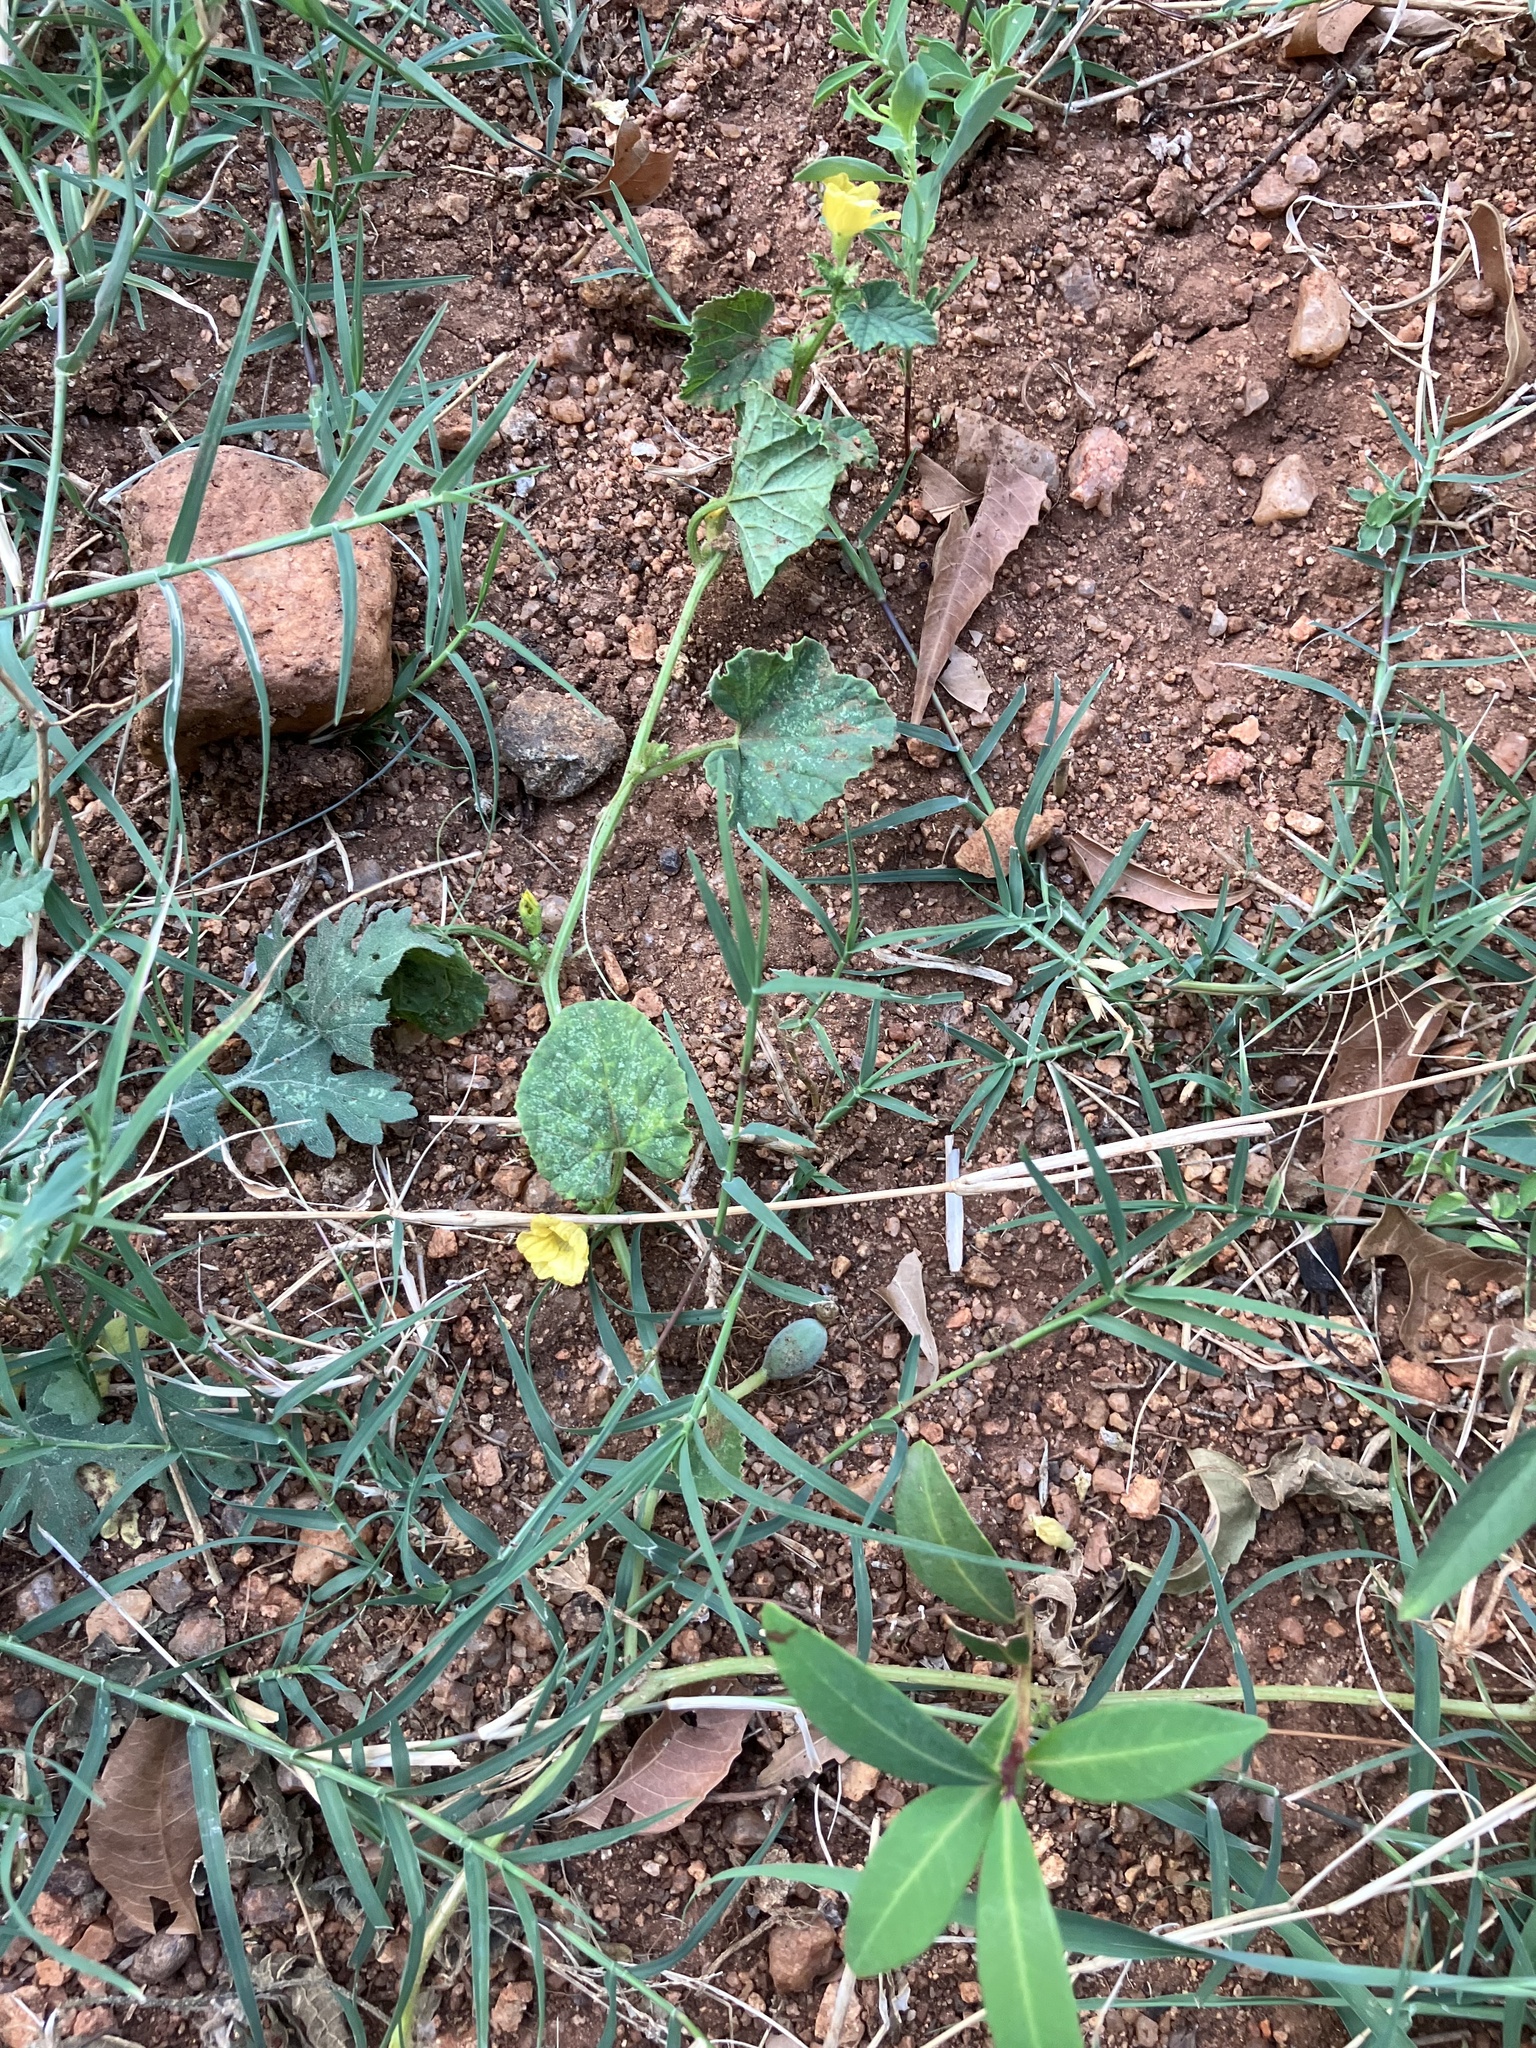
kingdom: Plantae
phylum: Tracheophyta
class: Magnoliopsida
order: Solanales
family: Convolvulaceae
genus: Merremia
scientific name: Merremia emarginata
